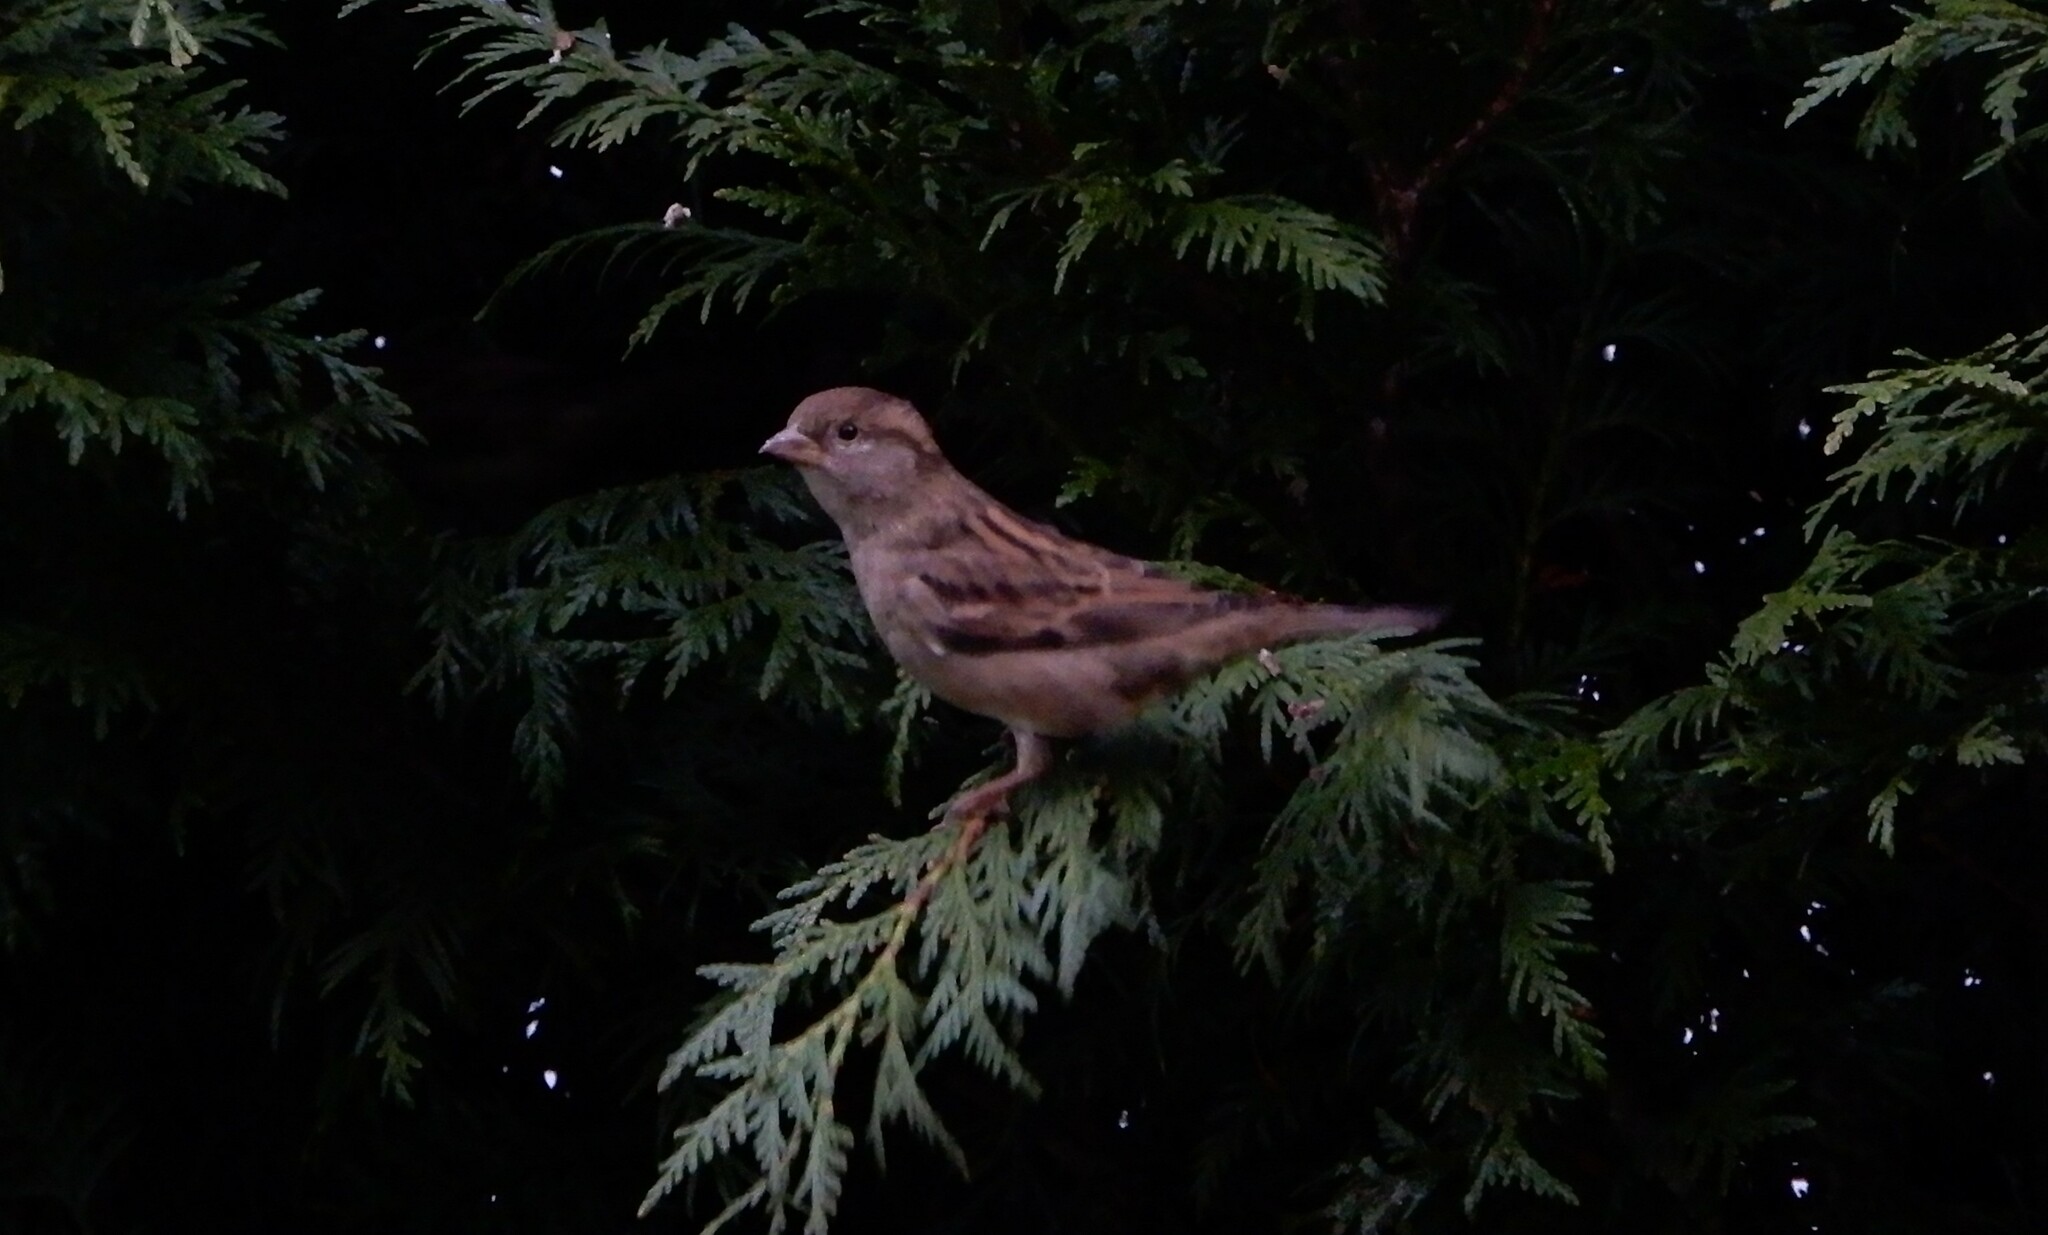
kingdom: Animalia
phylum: Chordata
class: Aves
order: Passeriformes
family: Passeridae
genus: Passer
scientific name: Passer domesticus
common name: House sparrow
